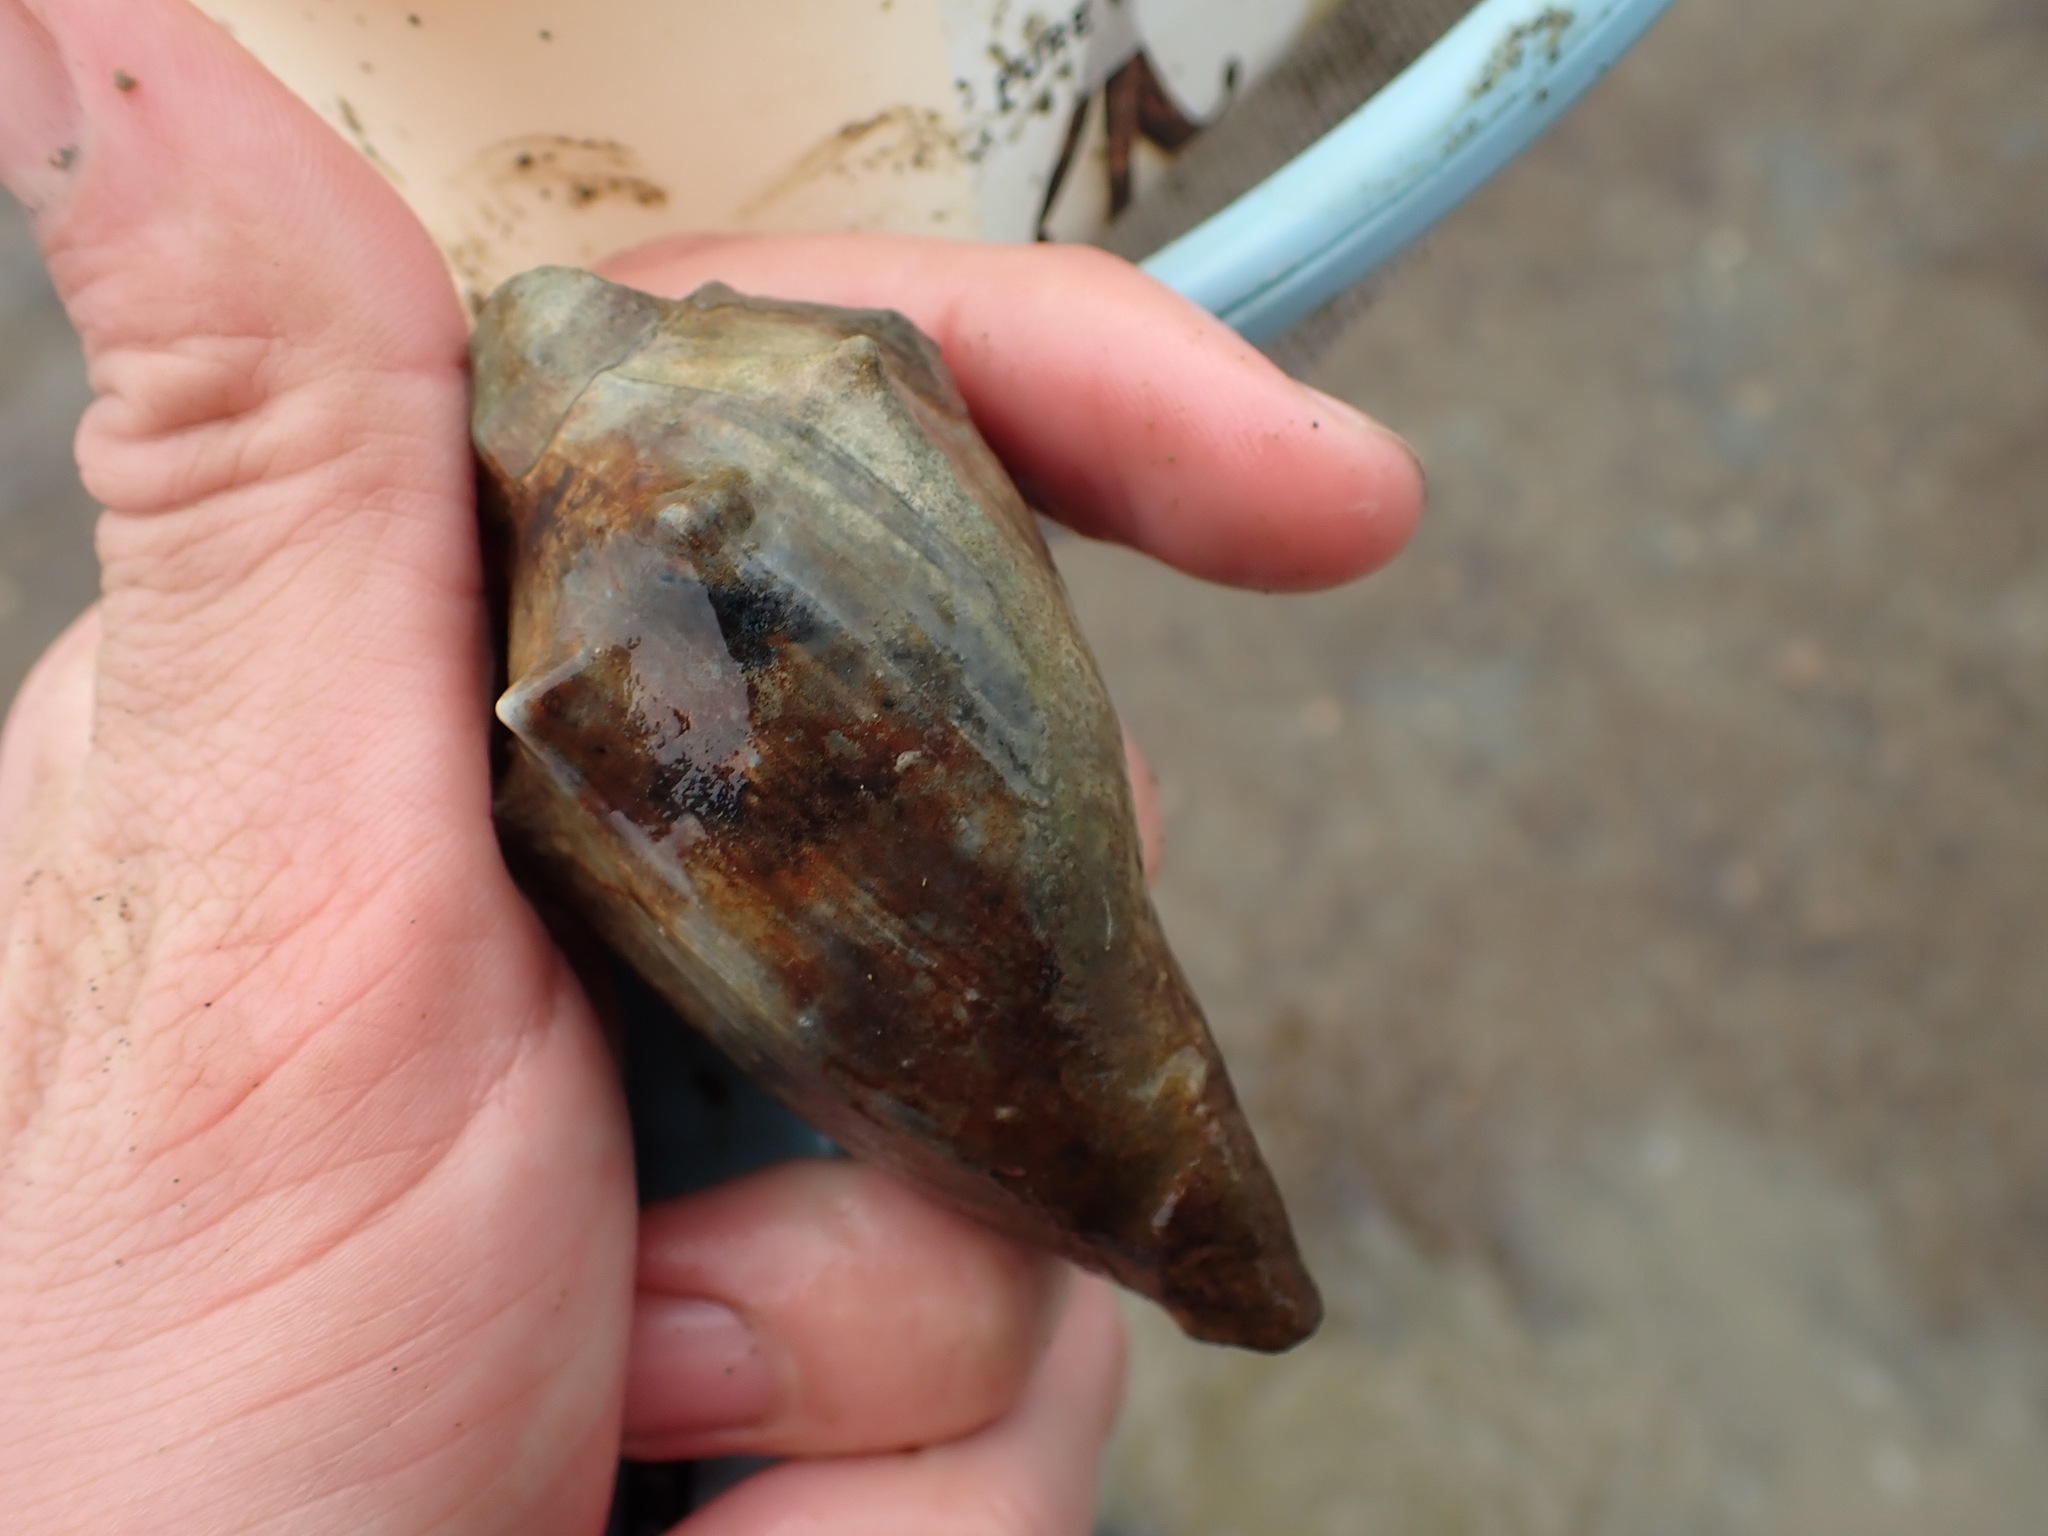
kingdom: Animalia
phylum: Mollusca
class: Gastropoda
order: Neogastropoda
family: Volutidae
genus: Alcithoe
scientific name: Alcithoe arabica
